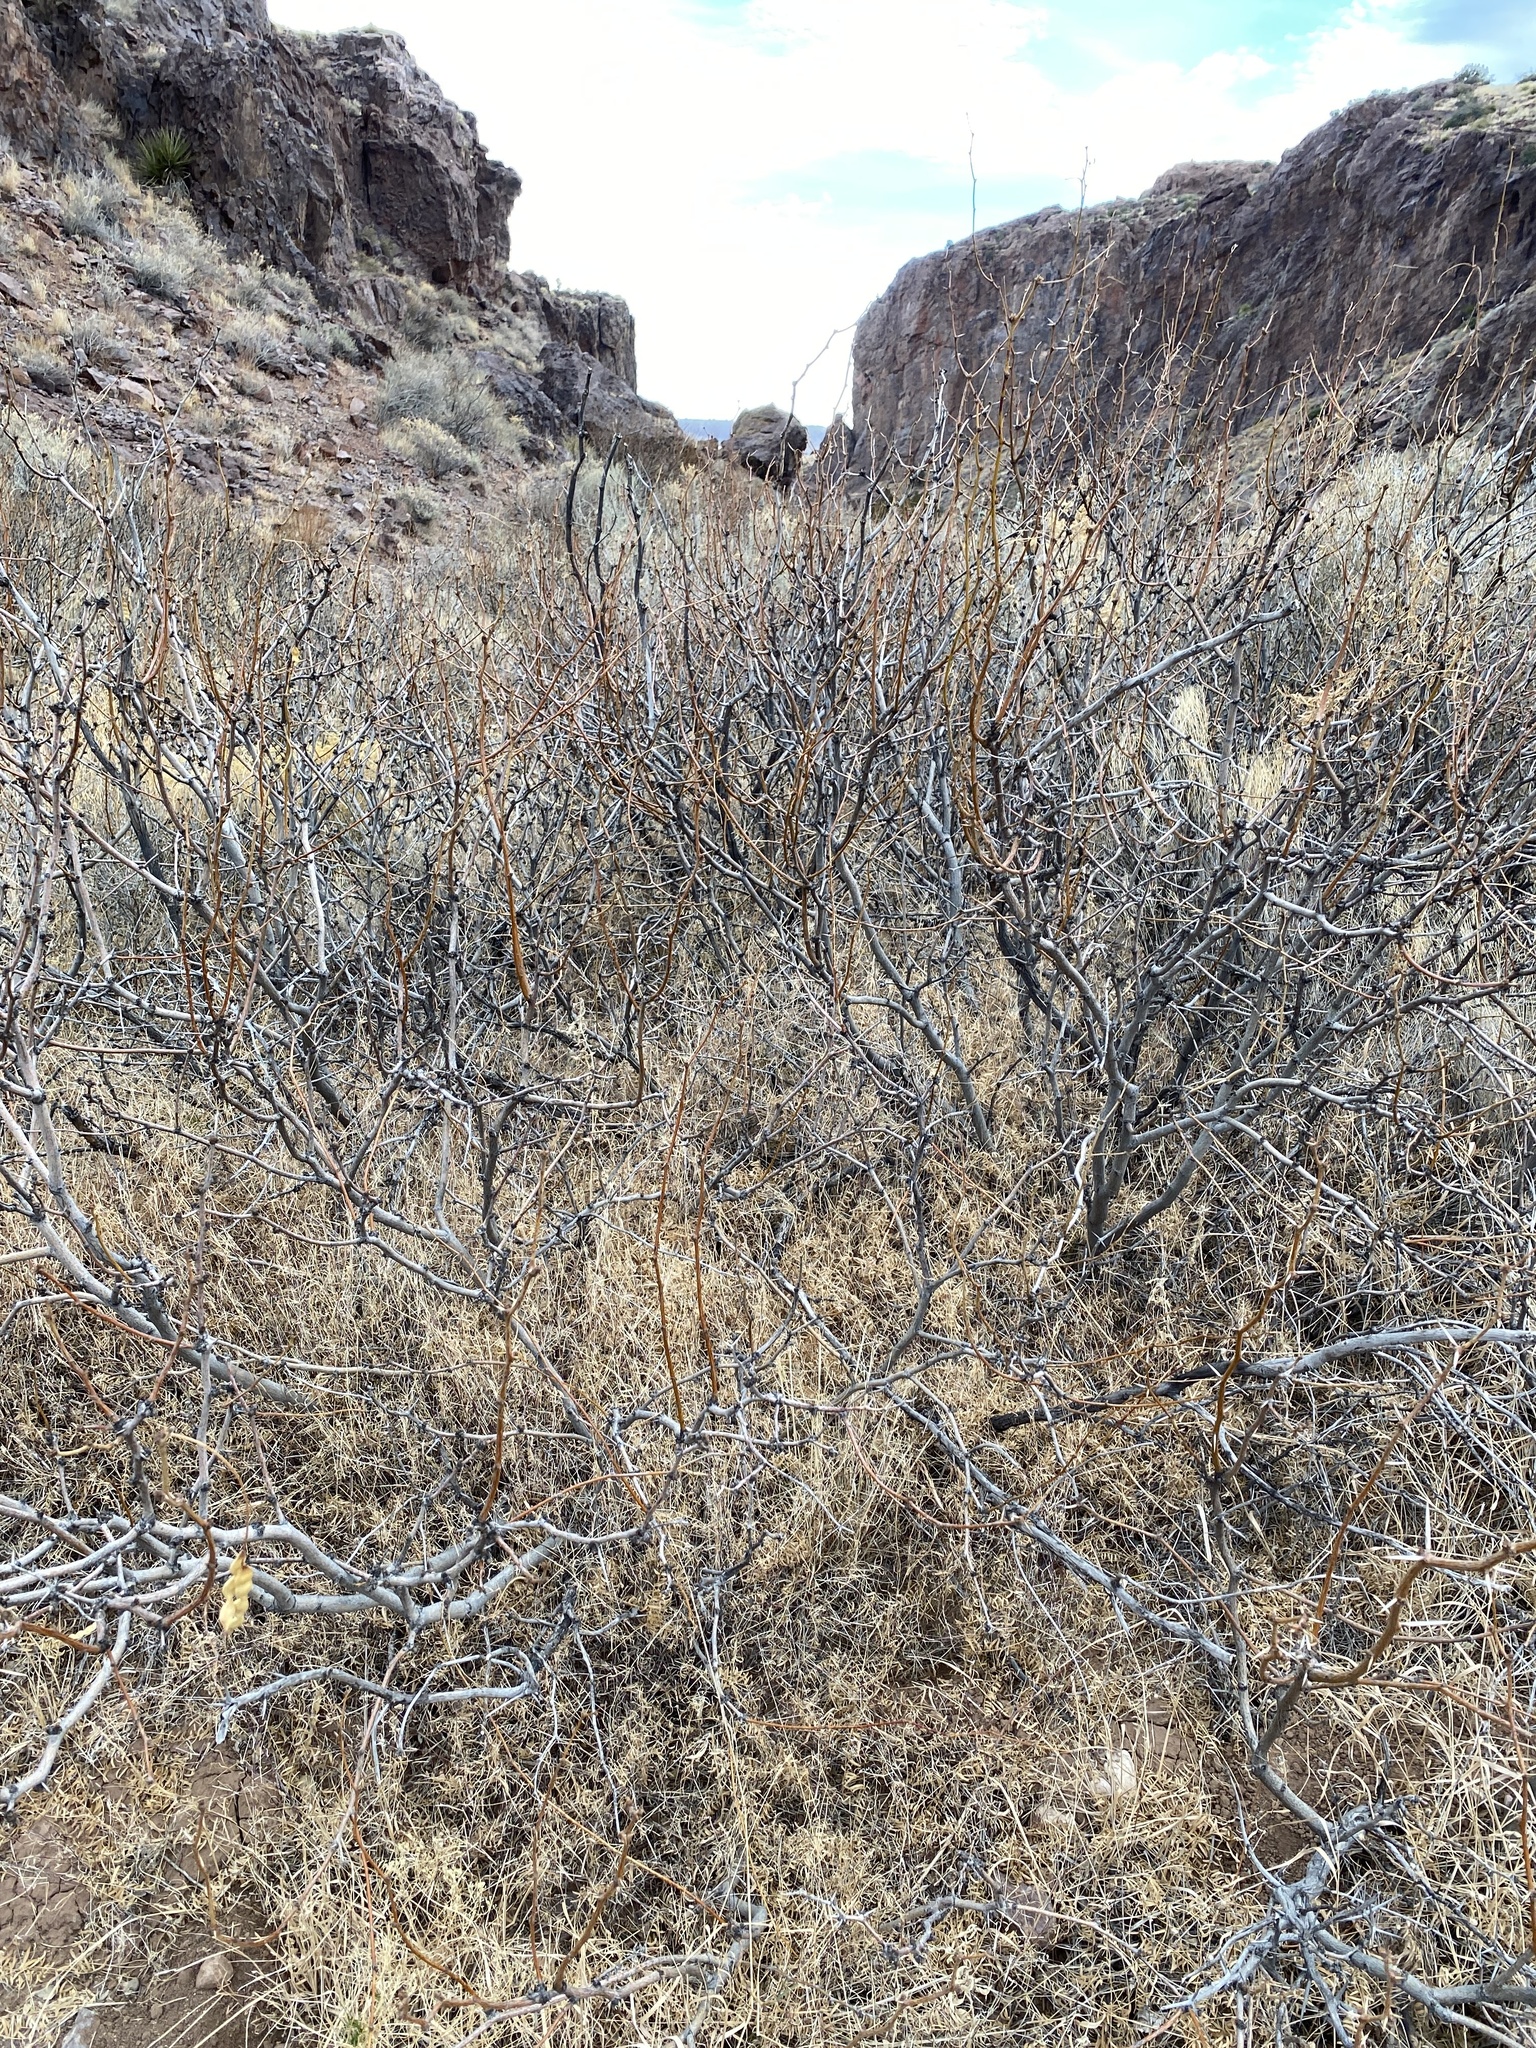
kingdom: Plantae
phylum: Tracheophyta
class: Magnoliopsida
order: Fabales
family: Fabaceae
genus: Prosopis
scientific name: Prosopis glandulosa
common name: Honey mesquite
